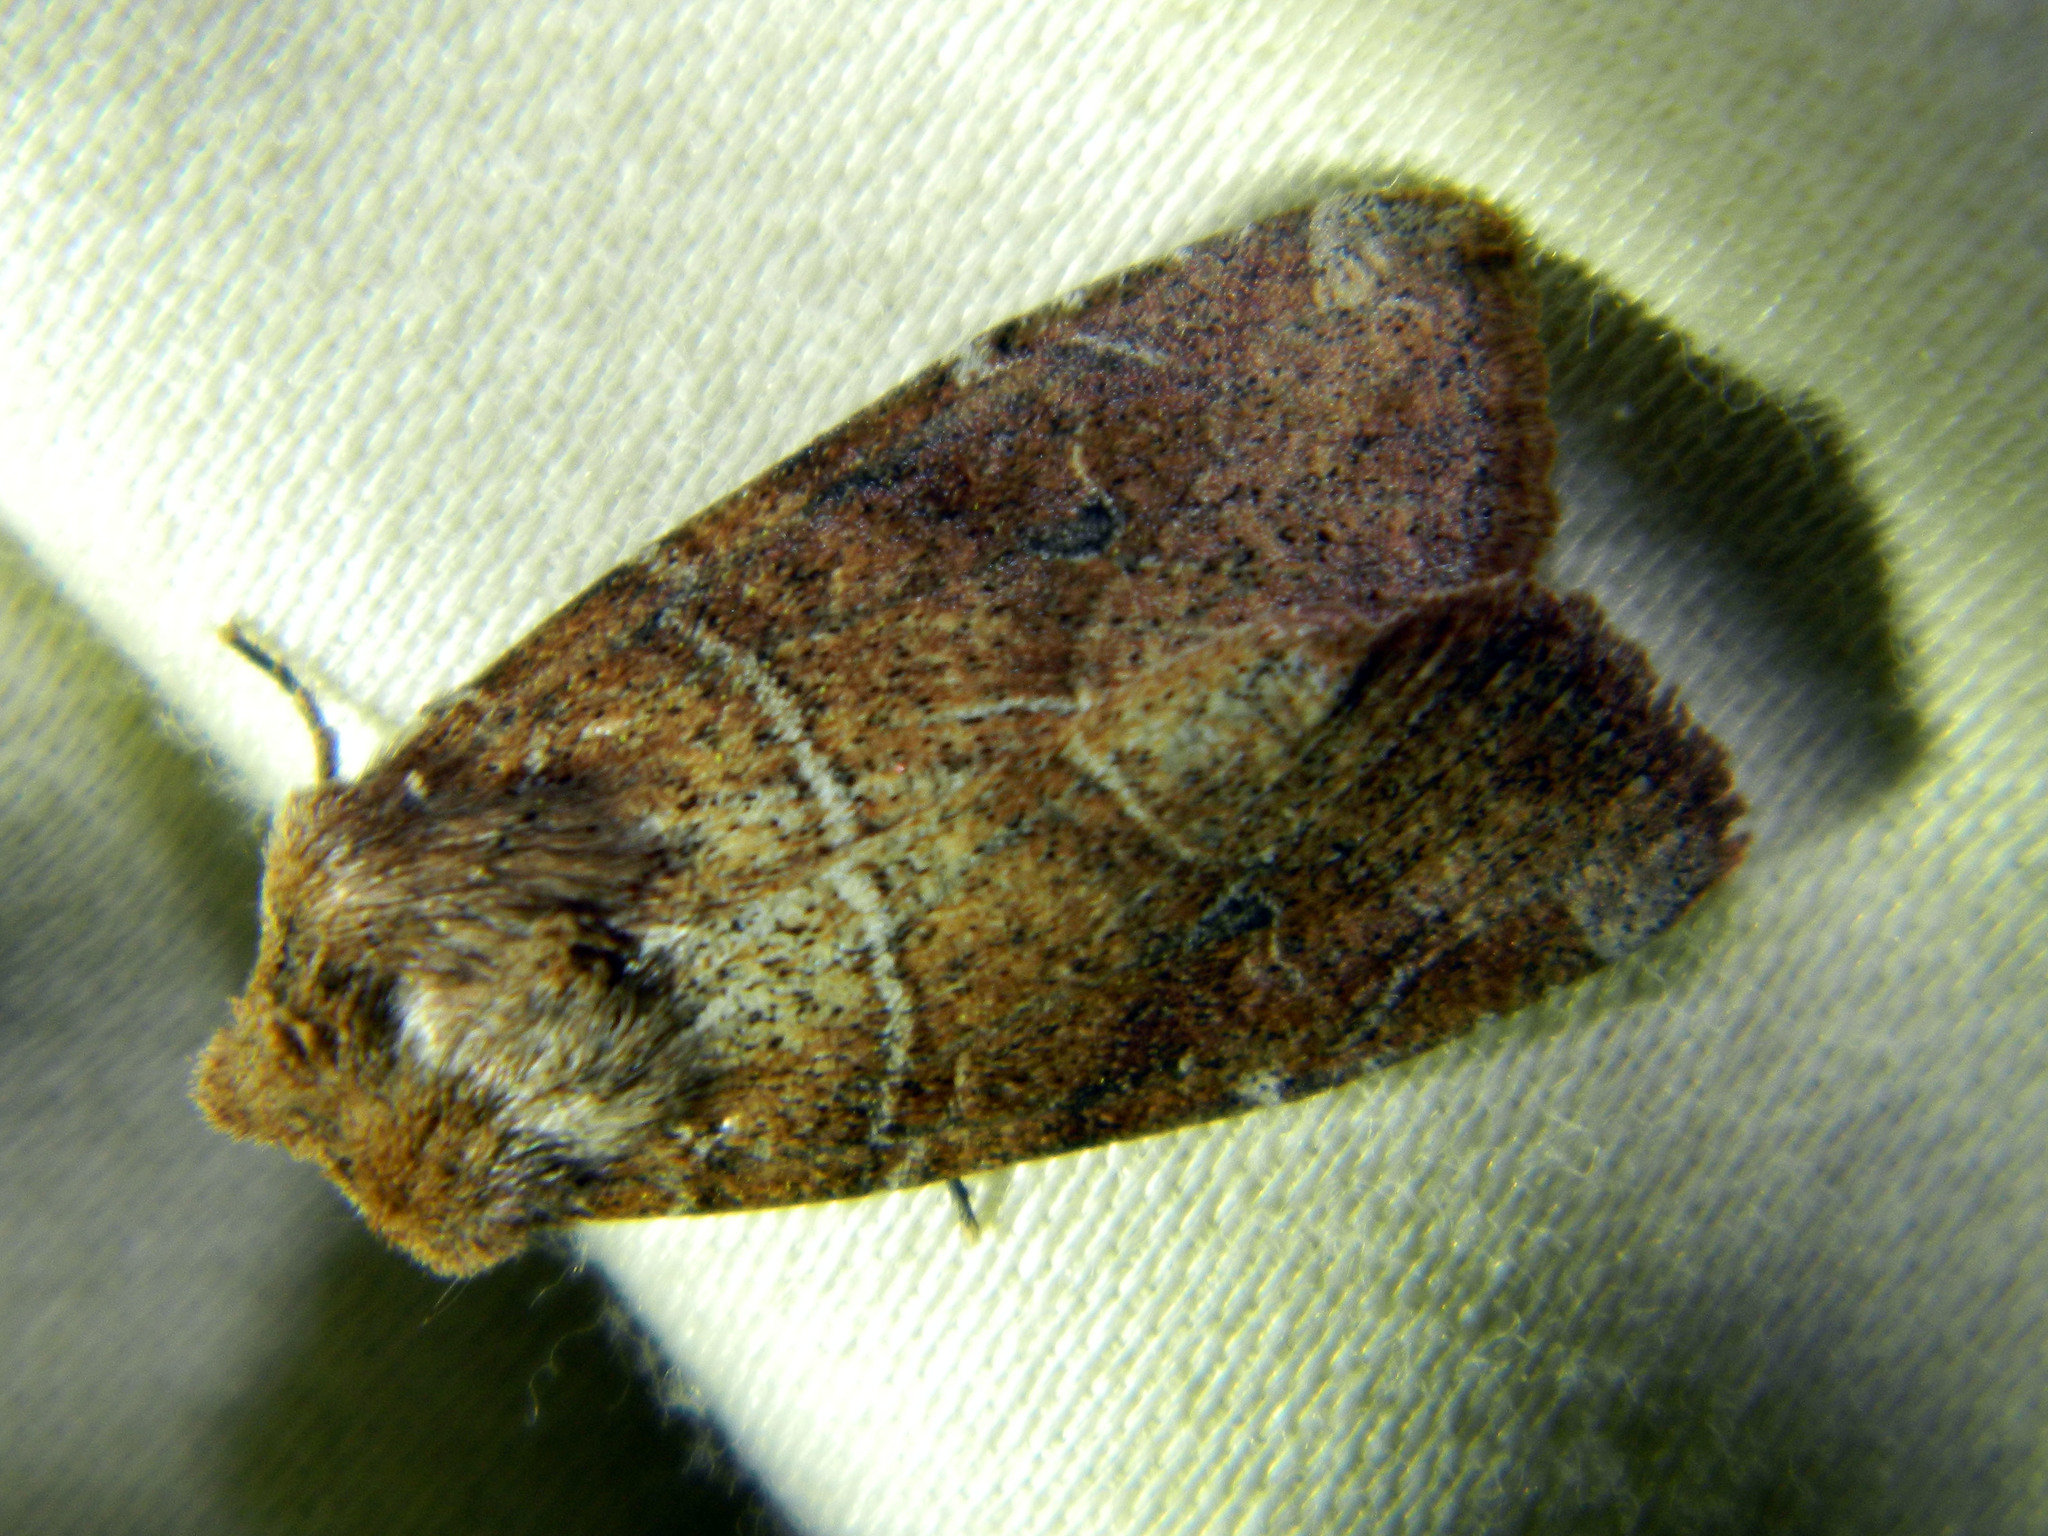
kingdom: Animalia
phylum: Arthropoda
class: Insecta
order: Lepidoptera
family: Noctuidae
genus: Crocigrapha
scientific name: Crocigrapha normani
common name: Norman's quaker
